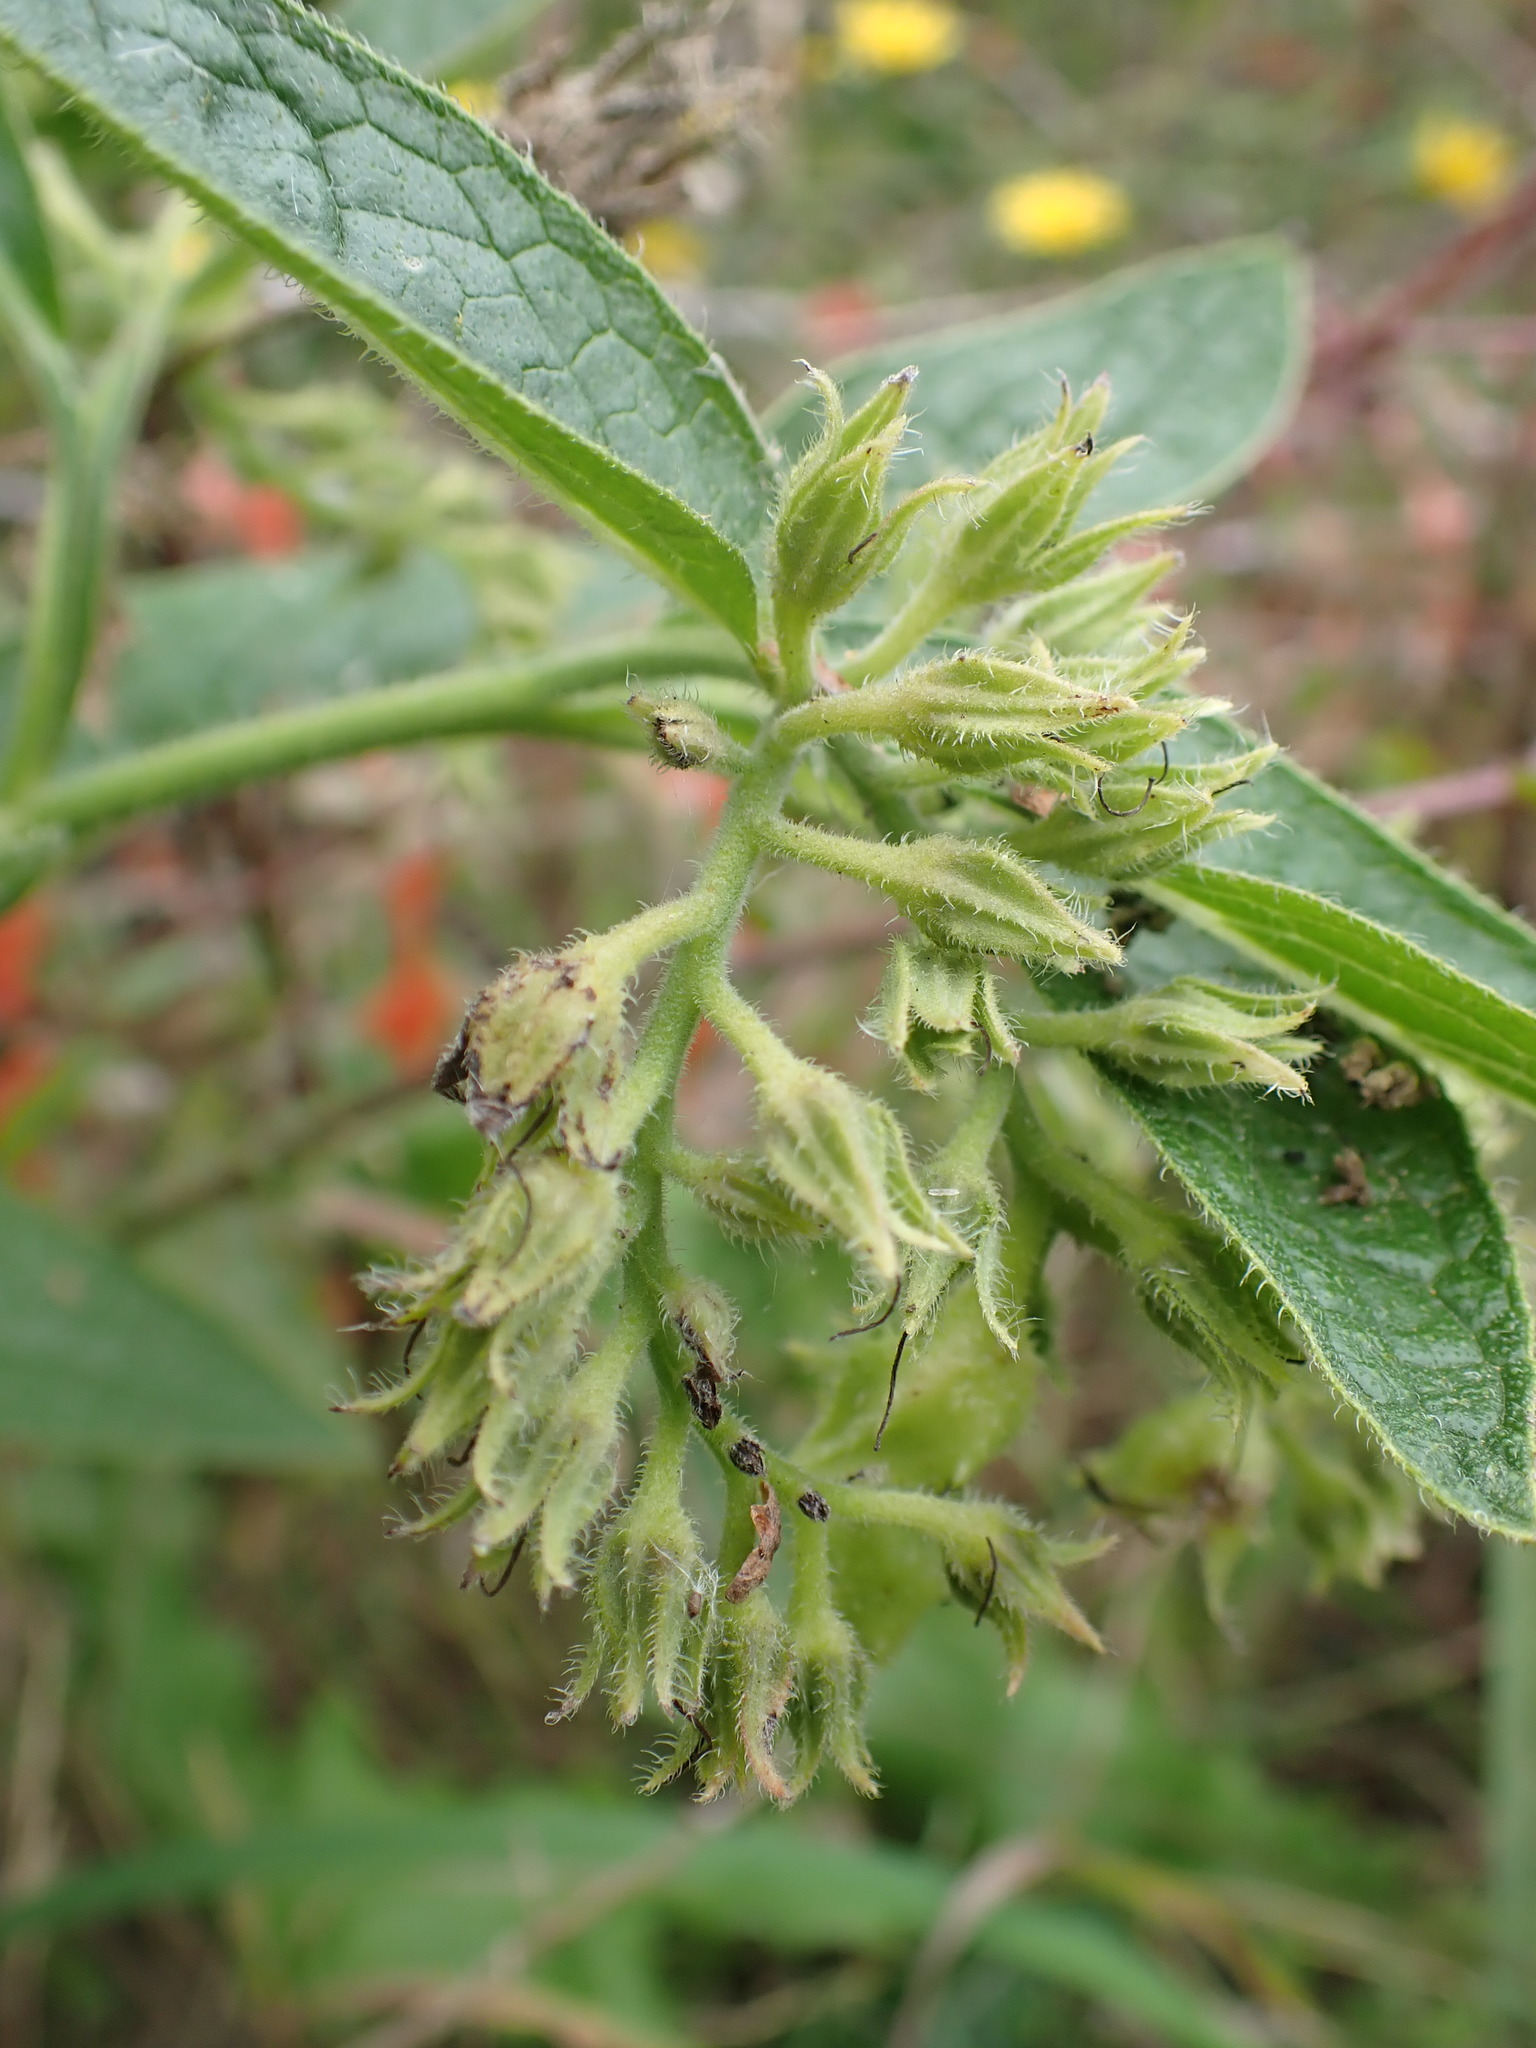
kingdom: Plantae
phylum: Tracheophyta
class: Magnoliopsida
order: Boraginales
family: Boraginaceae
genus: Symphytum
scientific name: Symphytum officinale
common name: Common comfrey
